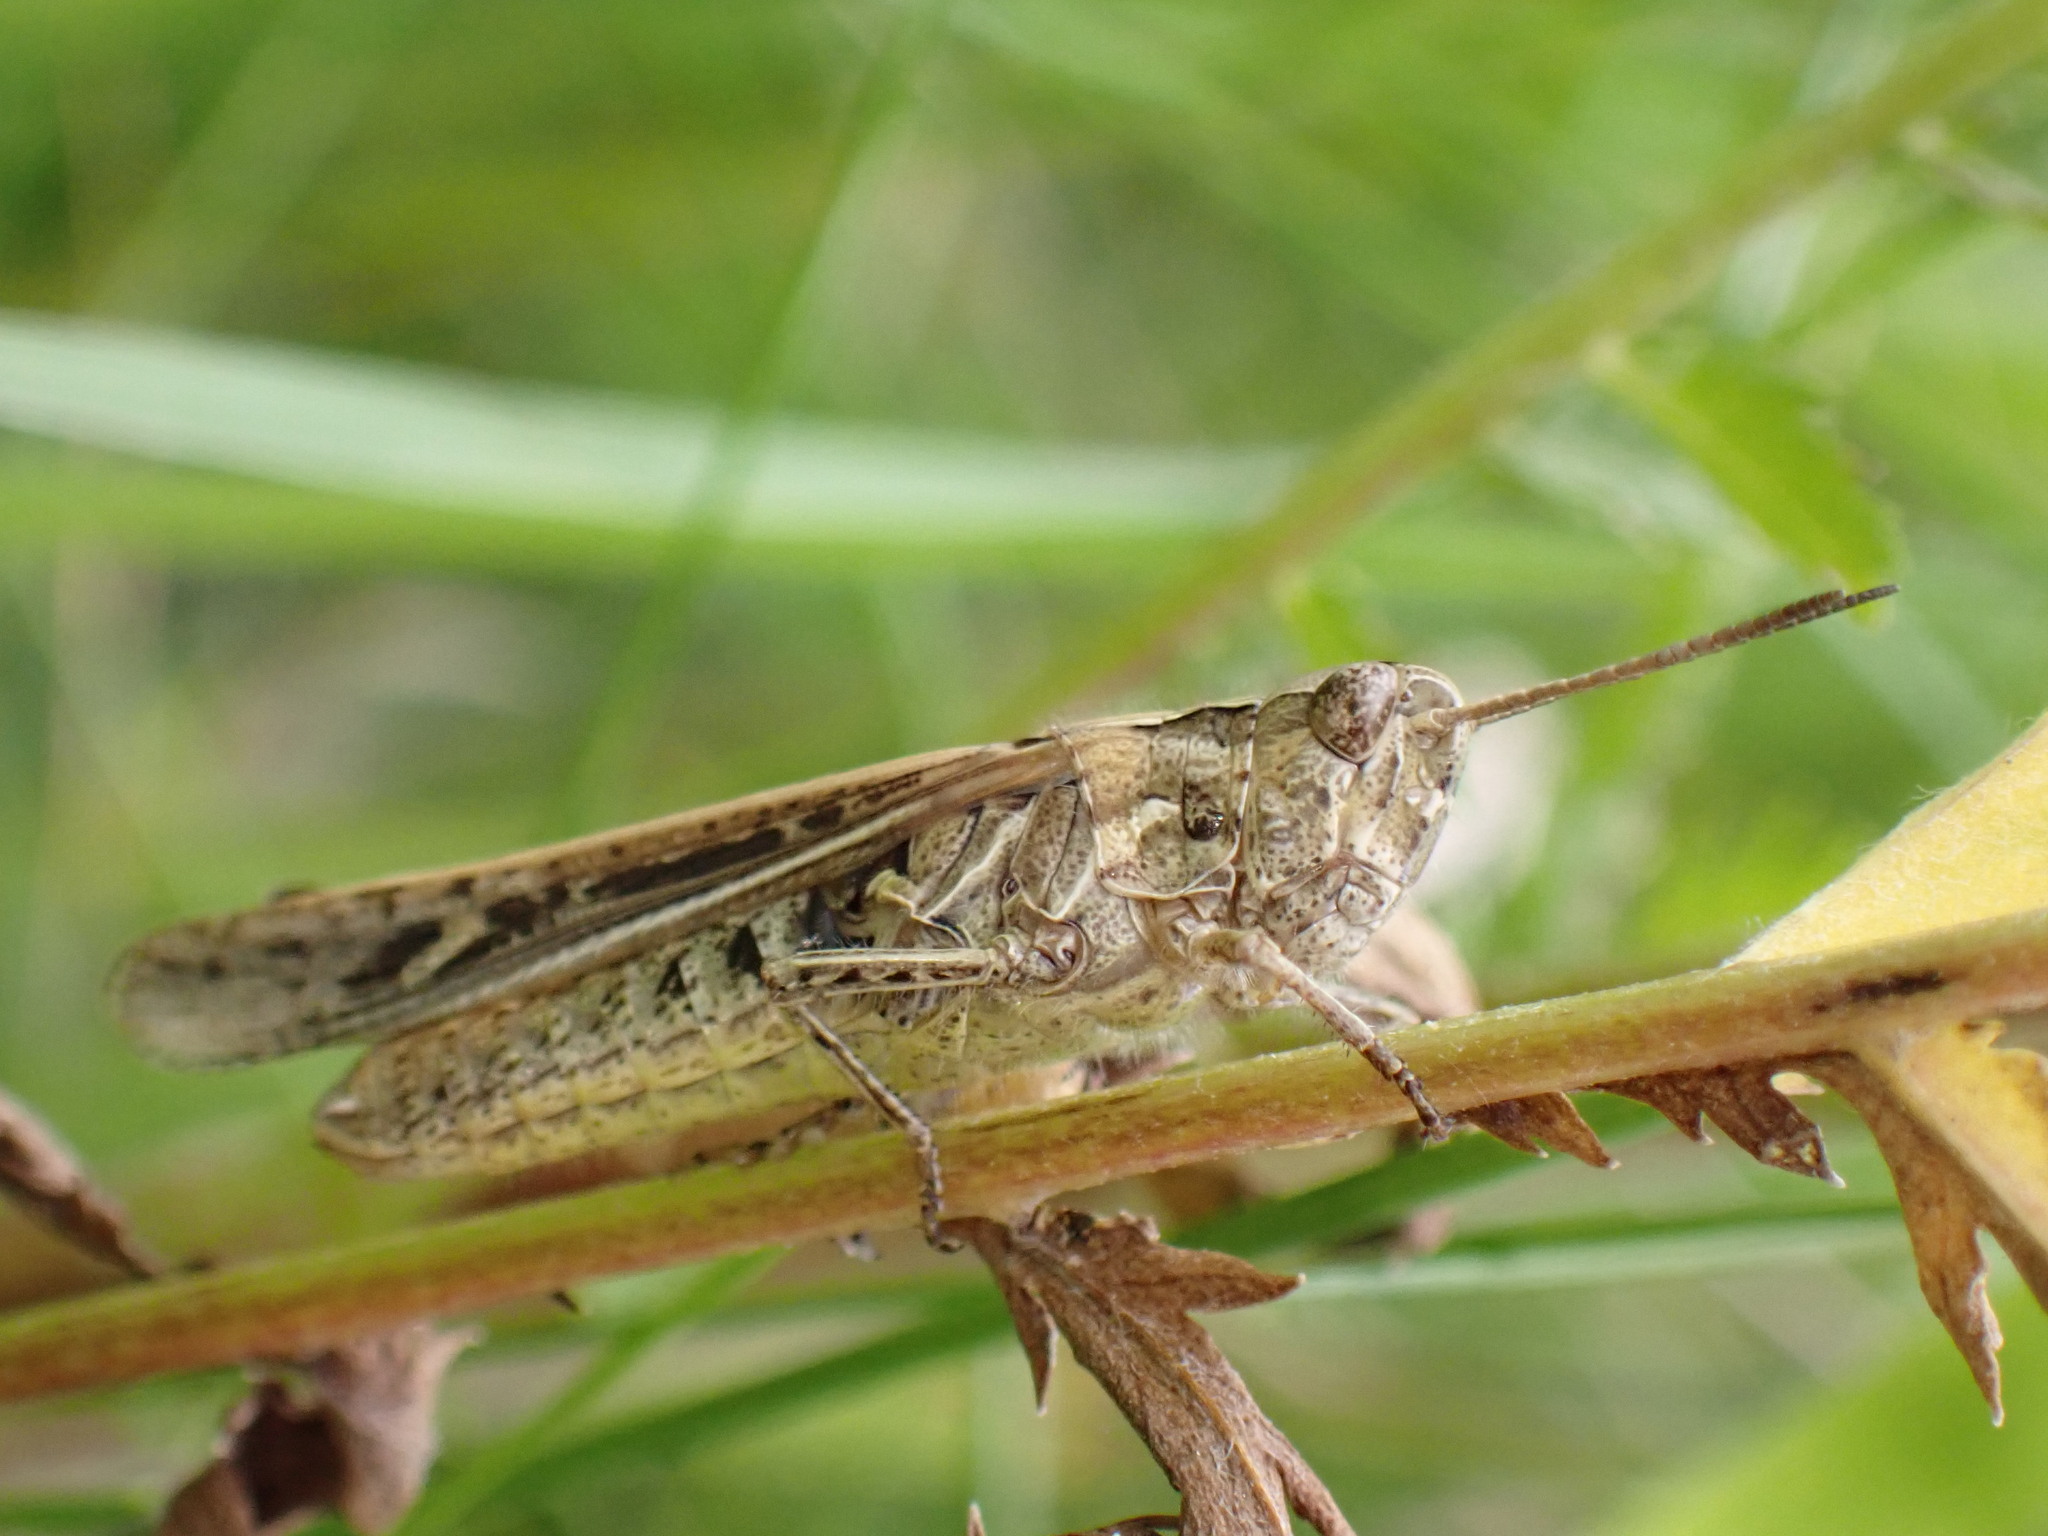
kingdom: Animalia
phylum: Arthropoda
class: Insecta
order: Orthoptera
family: Acrididae
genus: Chorthippus
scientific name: Chorthippus brunneus
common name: Field grasshopper
